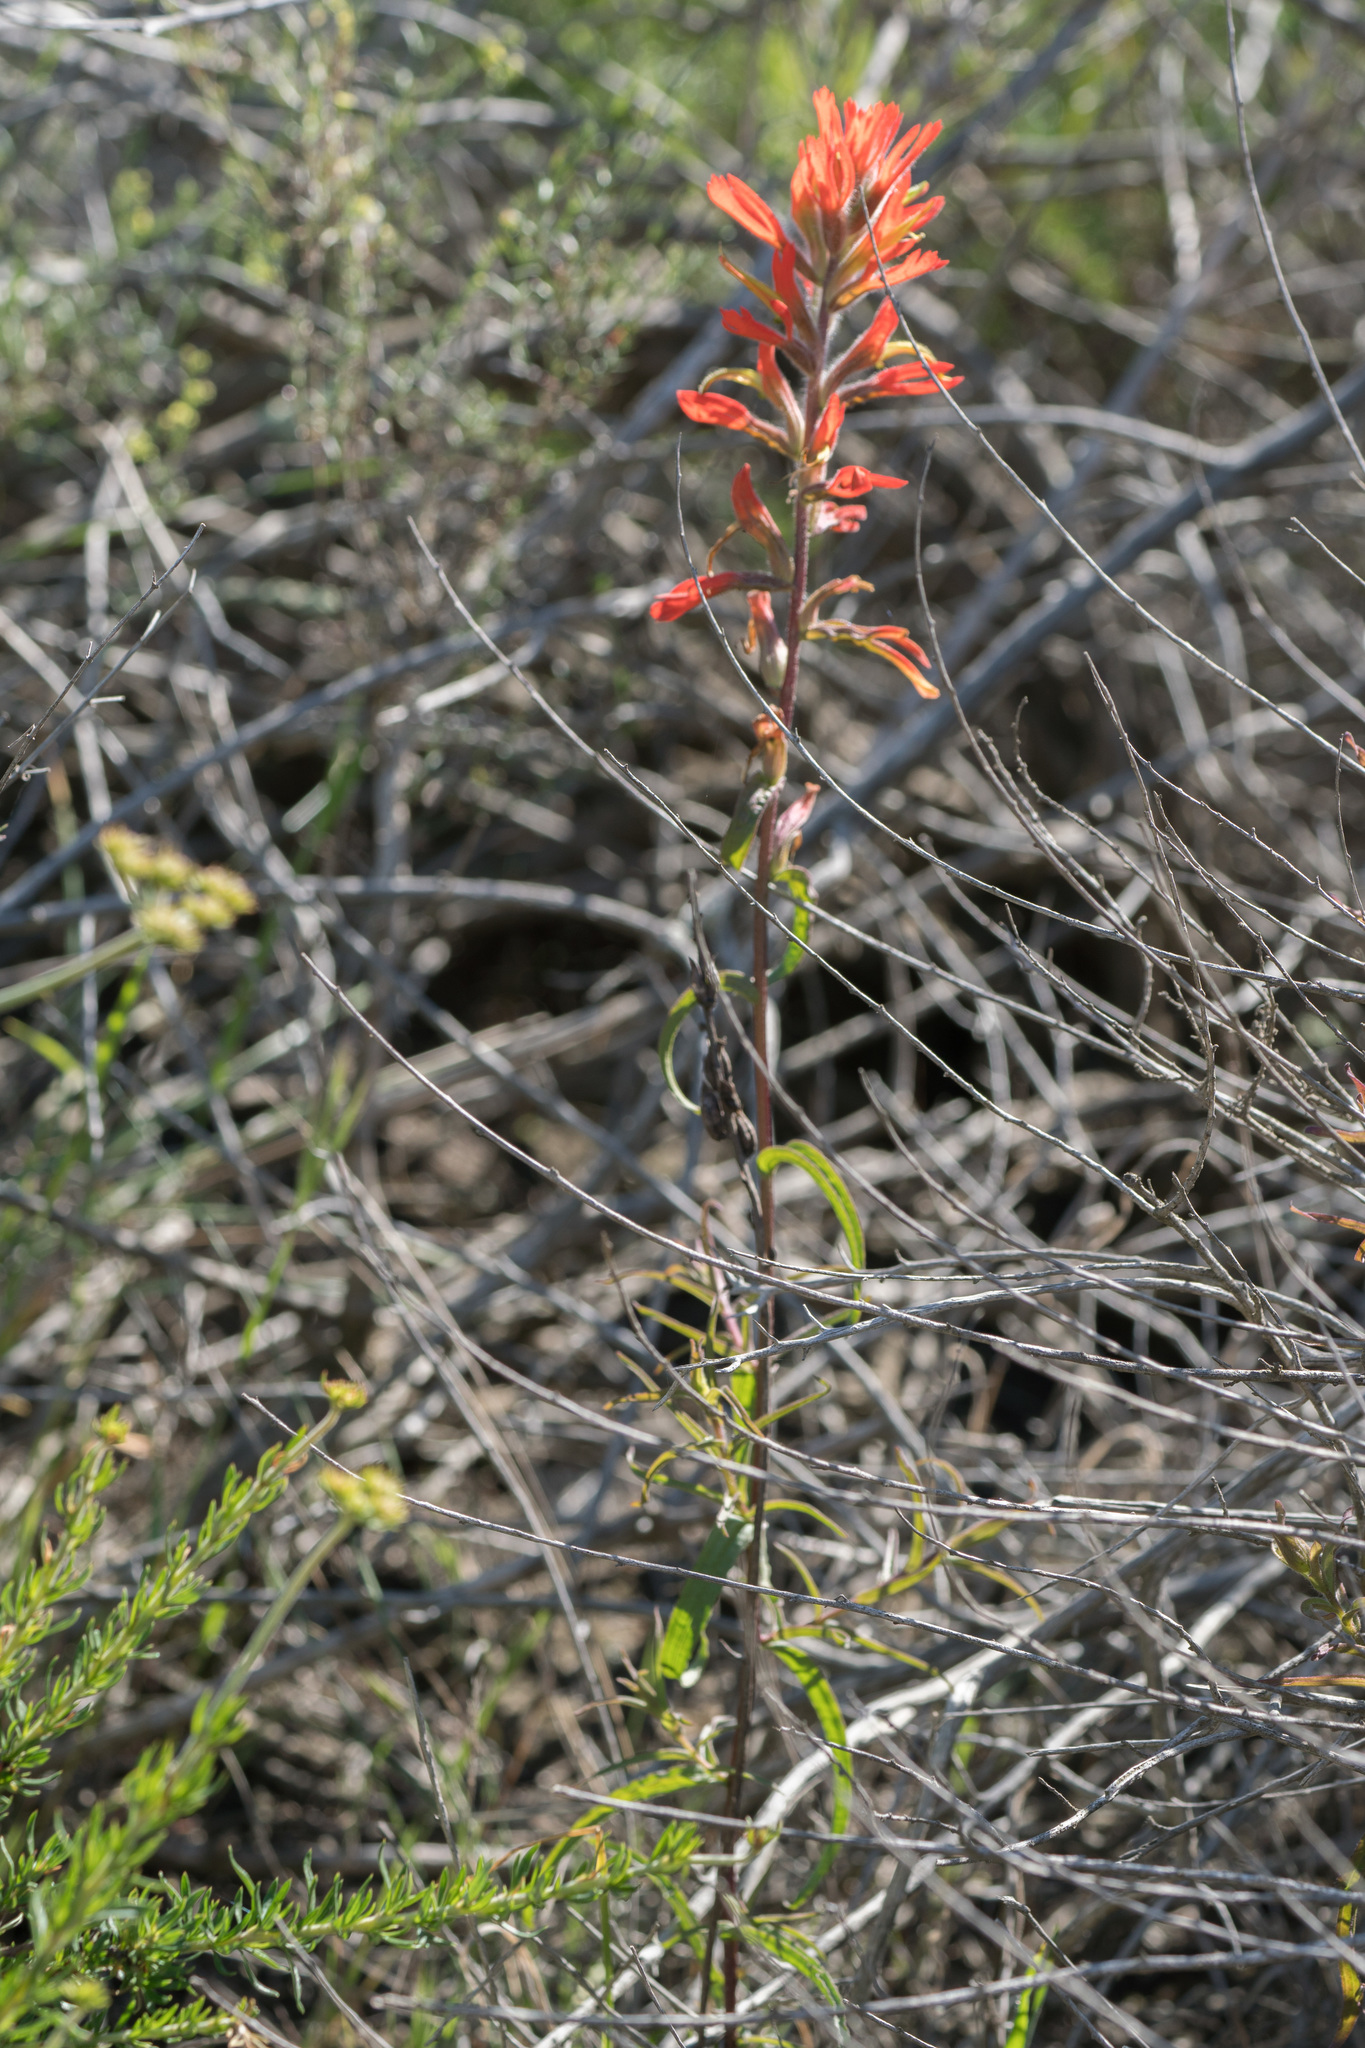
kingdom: Plantae
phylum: Tracheophyta
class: Magnoliopsida
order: Lamiales
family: Orobanchaceae
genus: Castilleja
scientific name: Castilleja affinis
